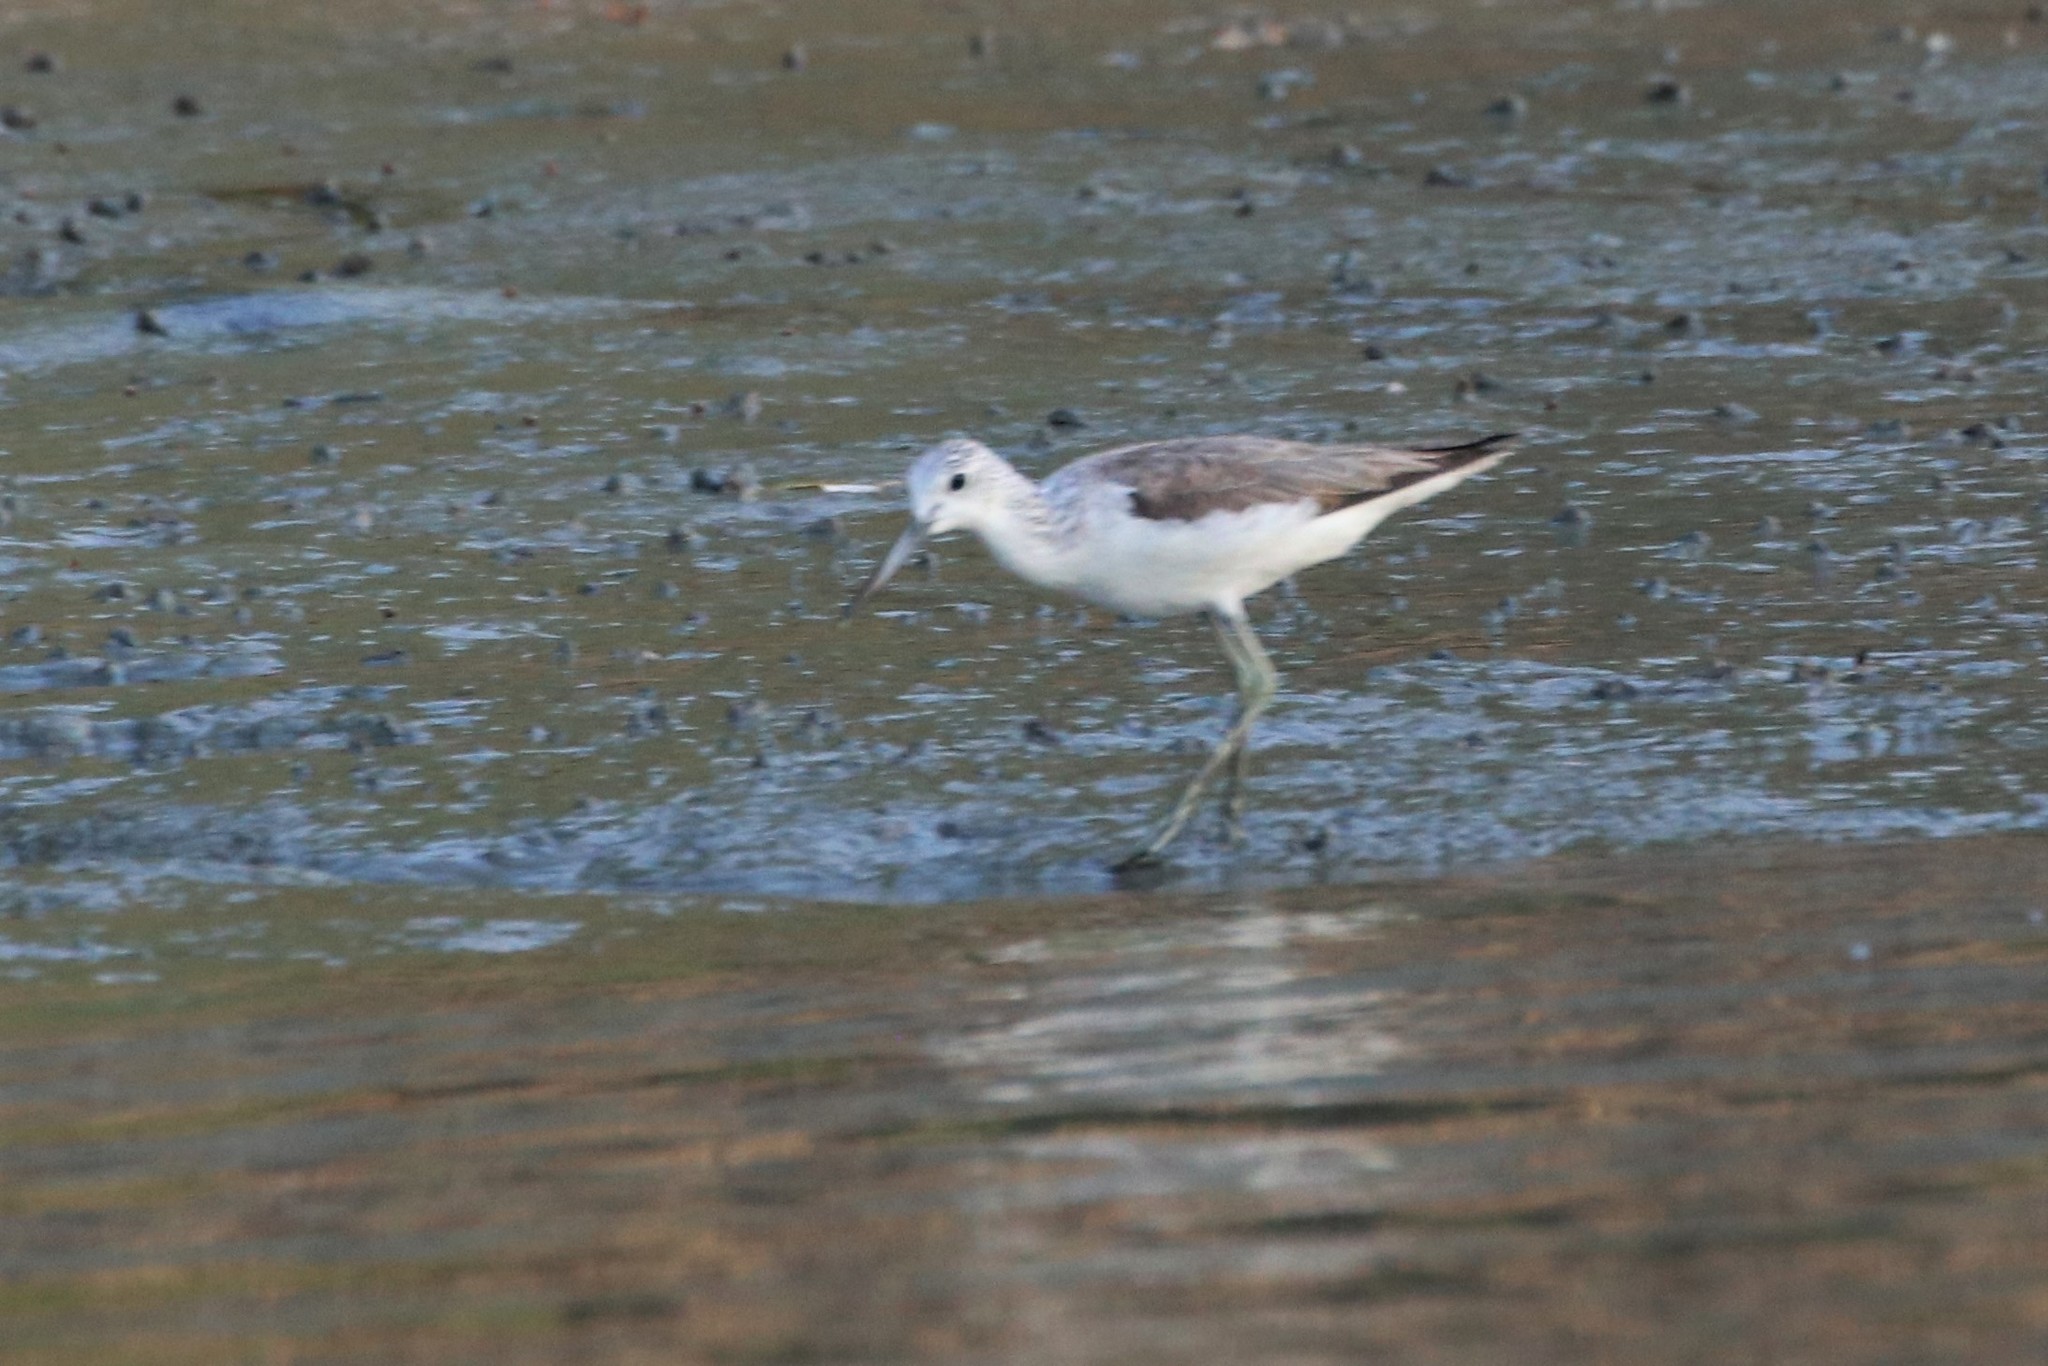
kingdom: Animalia
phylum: Chordata
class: Aves
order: Charadriiformes
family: Scolopacidae
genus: Tringa
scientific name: Tringa nebularia
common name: Common greenshank
